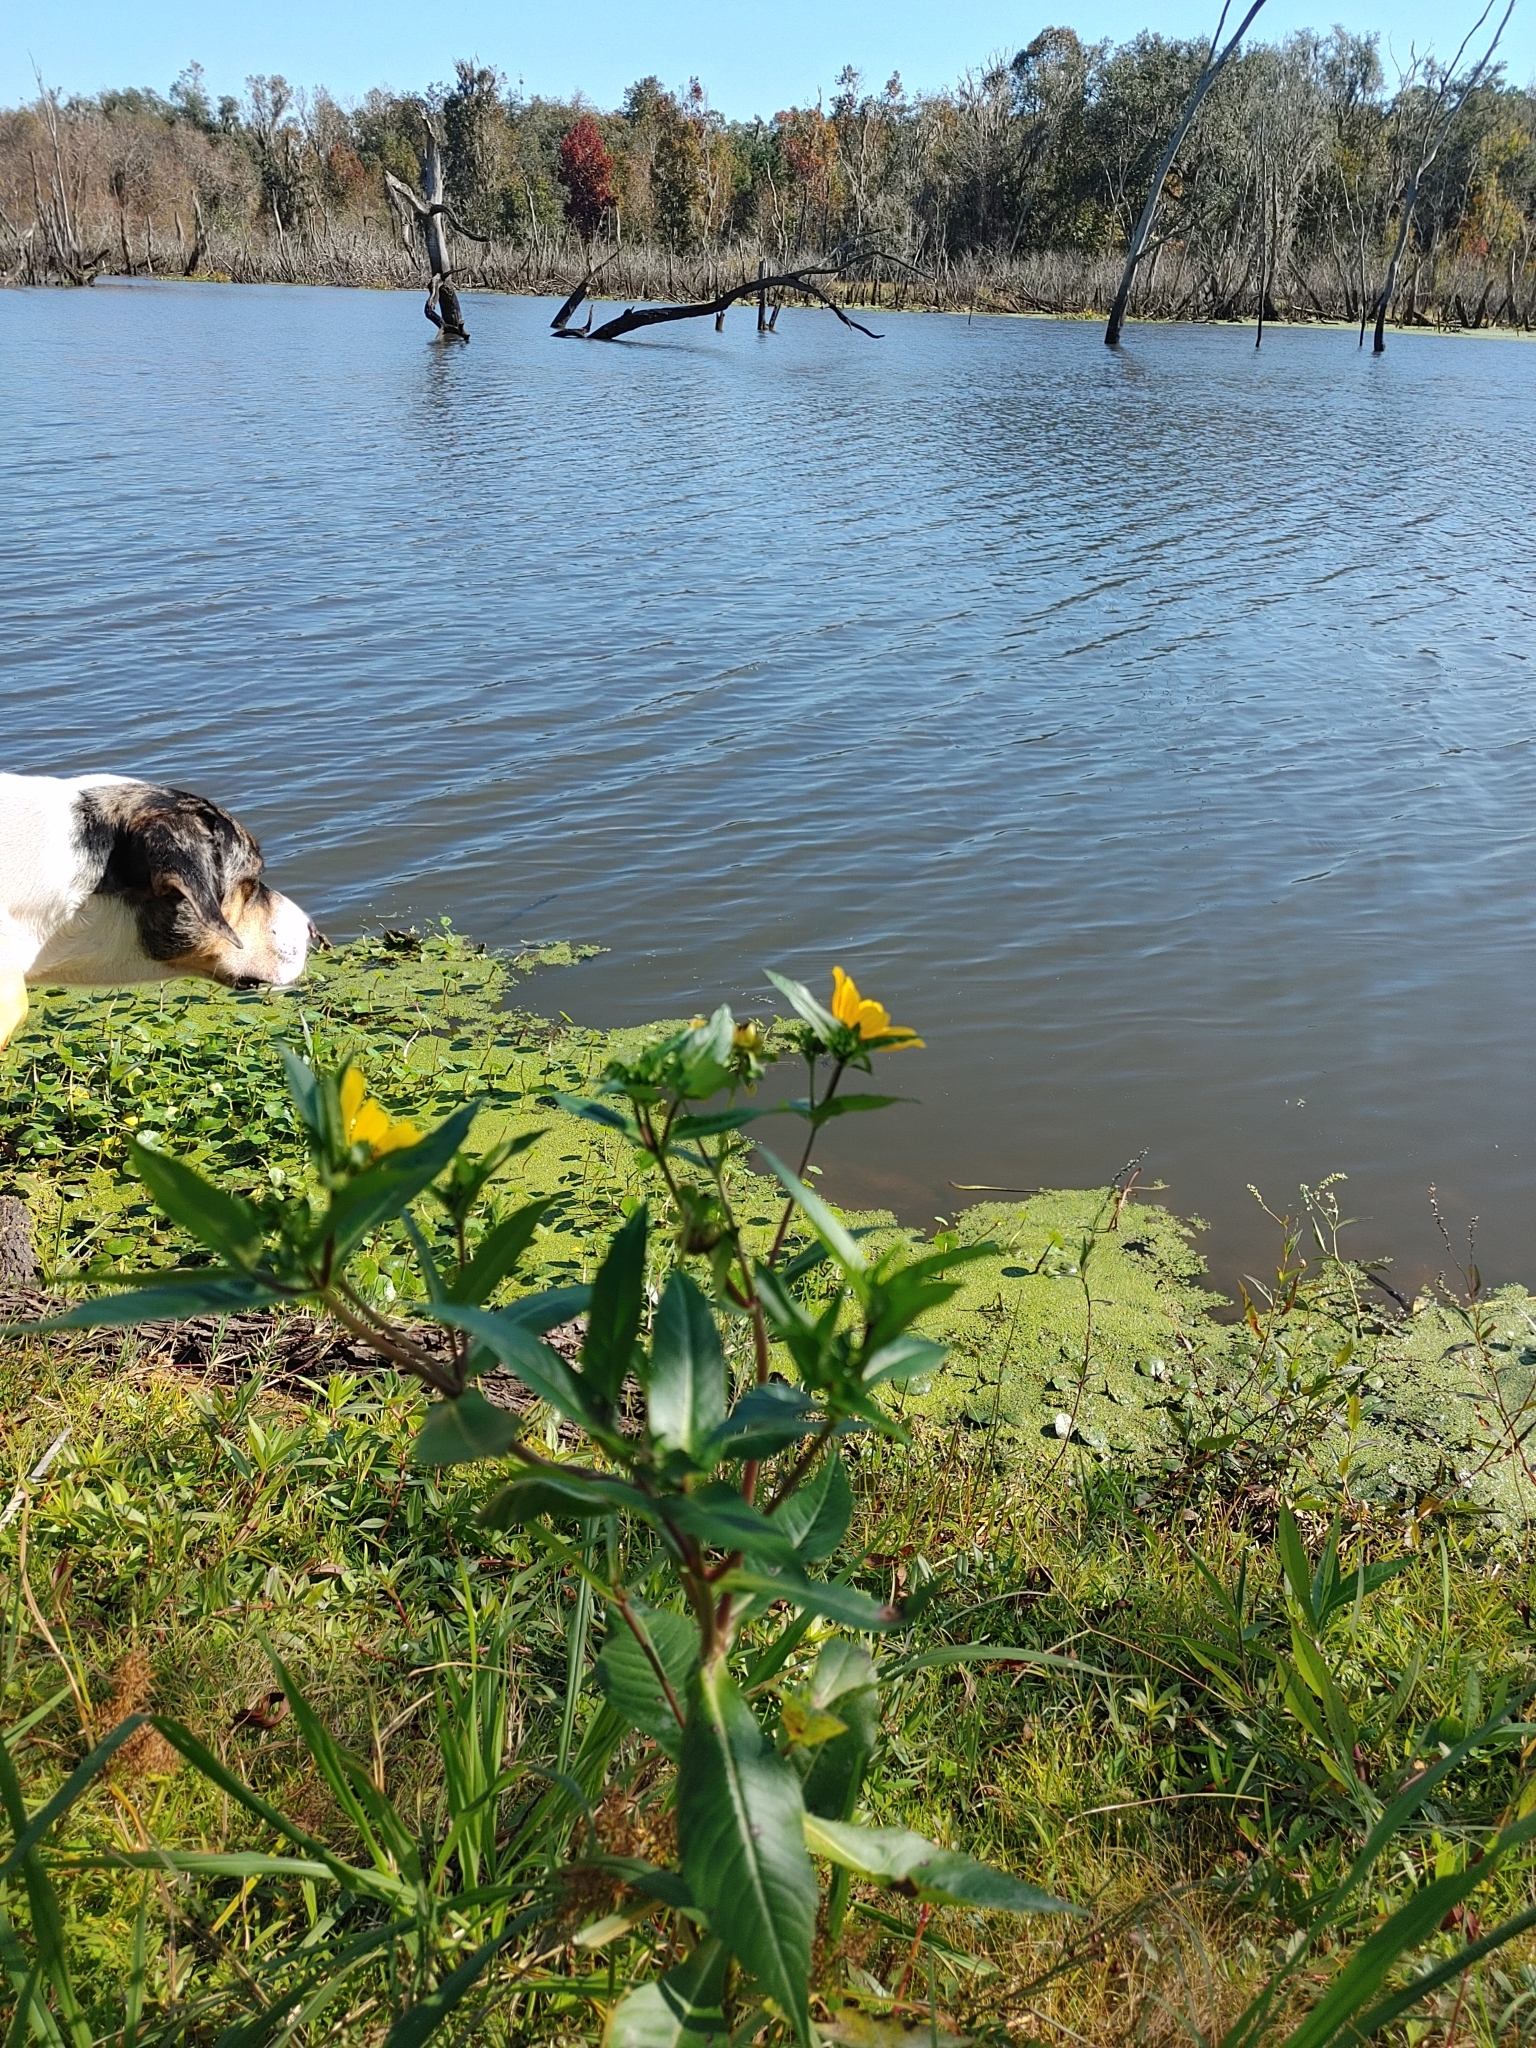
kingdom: Plantae
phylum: Tracheophyta
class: Magnoliopsida
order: Asterales
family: Asteraceae
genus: Bidens
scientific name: Bidens laevis
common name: Larger bur-marigold
